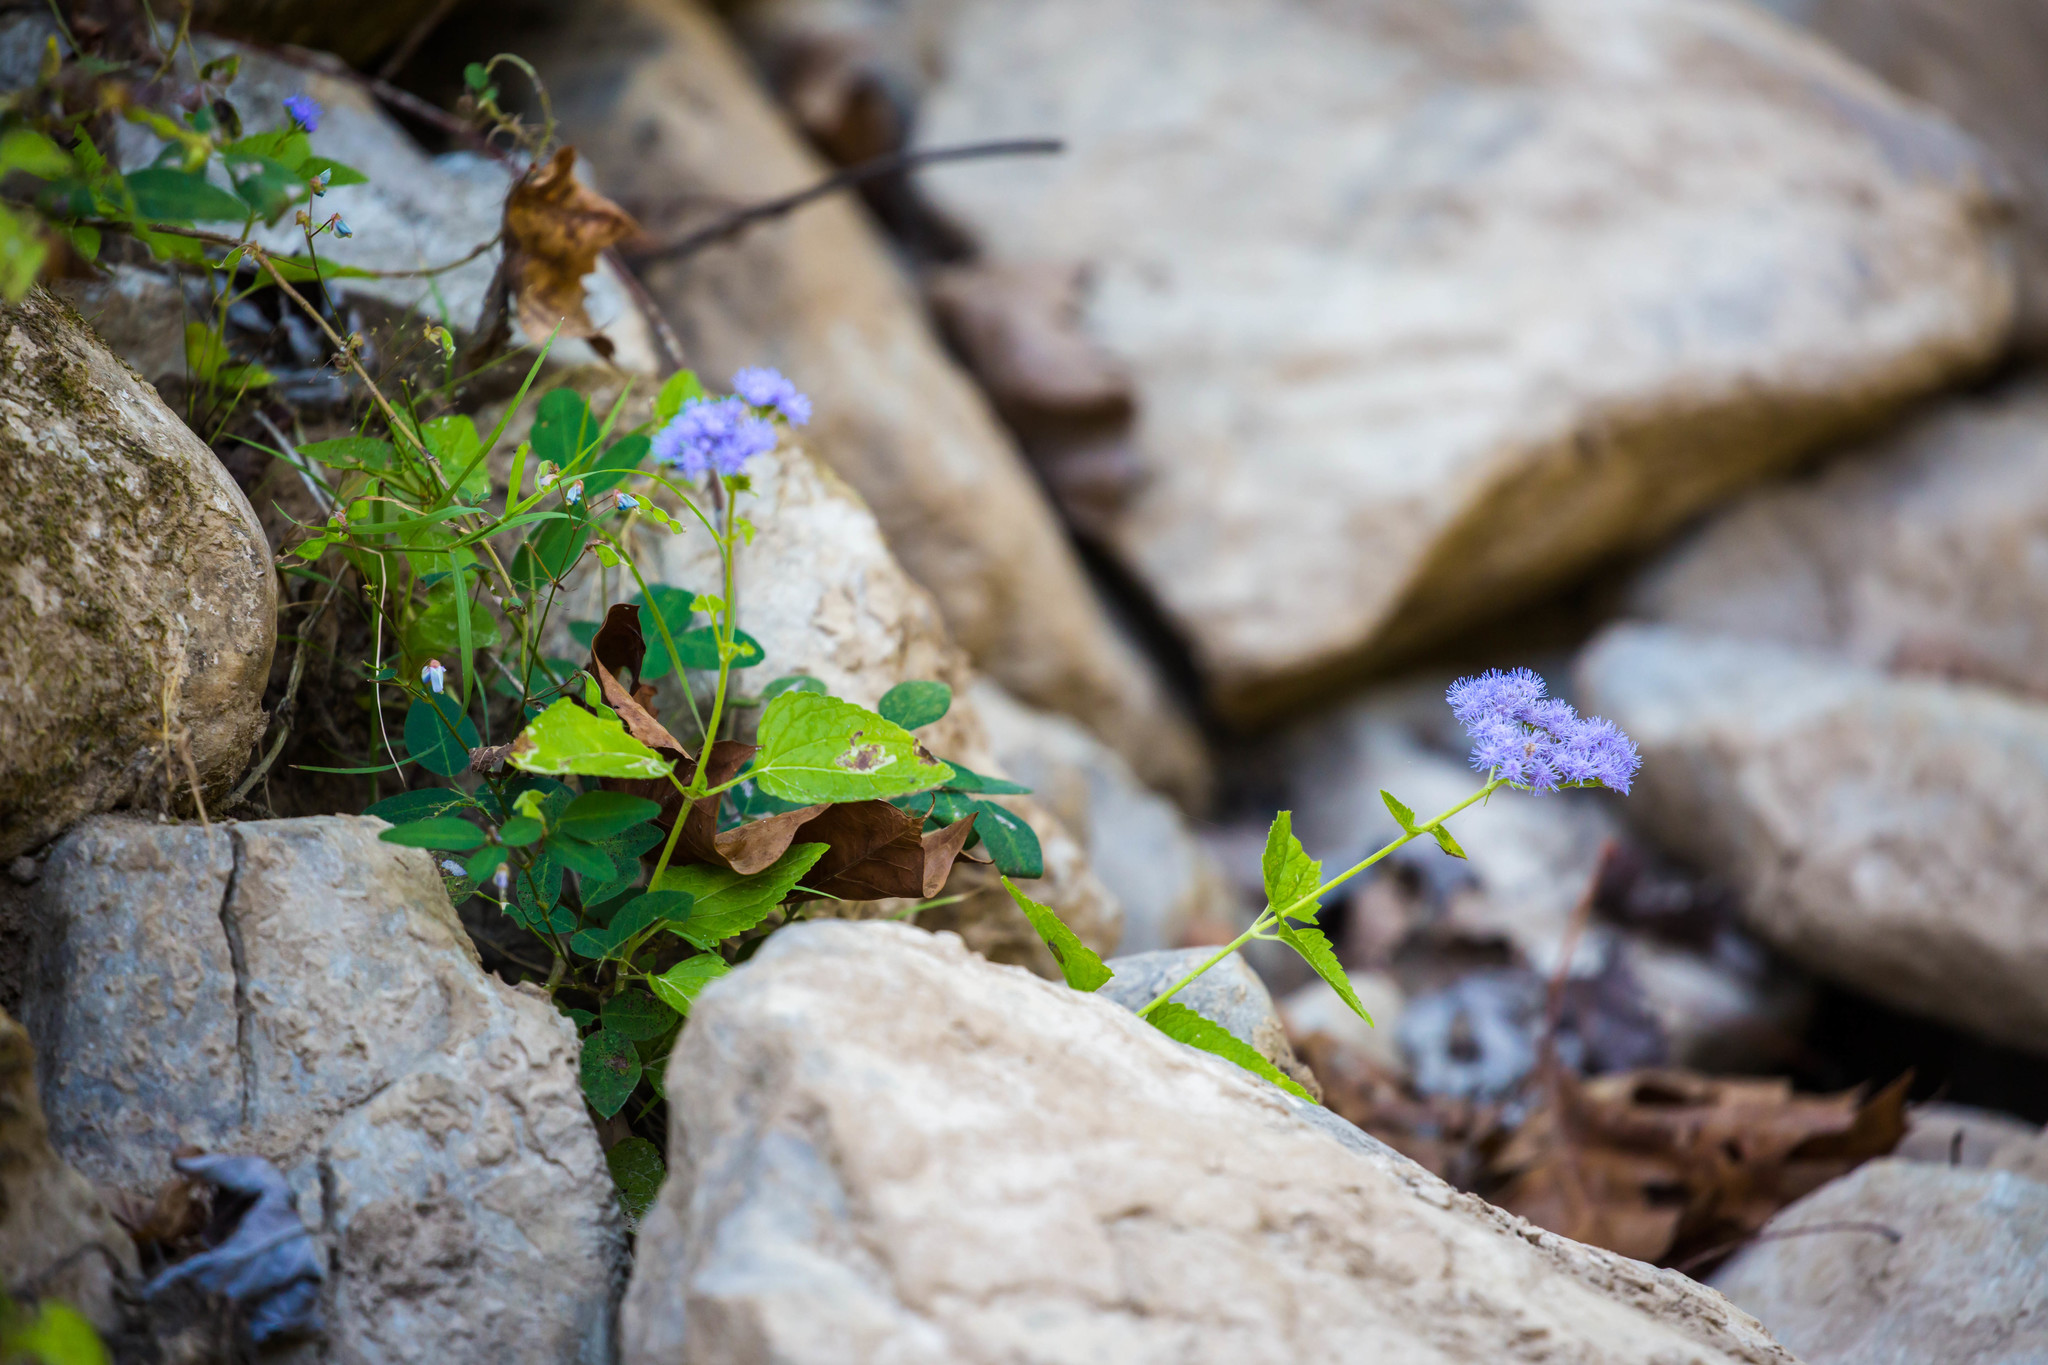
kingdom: Plantae
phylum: Tracheophyta
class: Magnoliopsida
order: Asterales
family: Asteraceae
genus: Conoclinium
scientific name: Conoclinium coelestinum
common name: Blue mistflower
